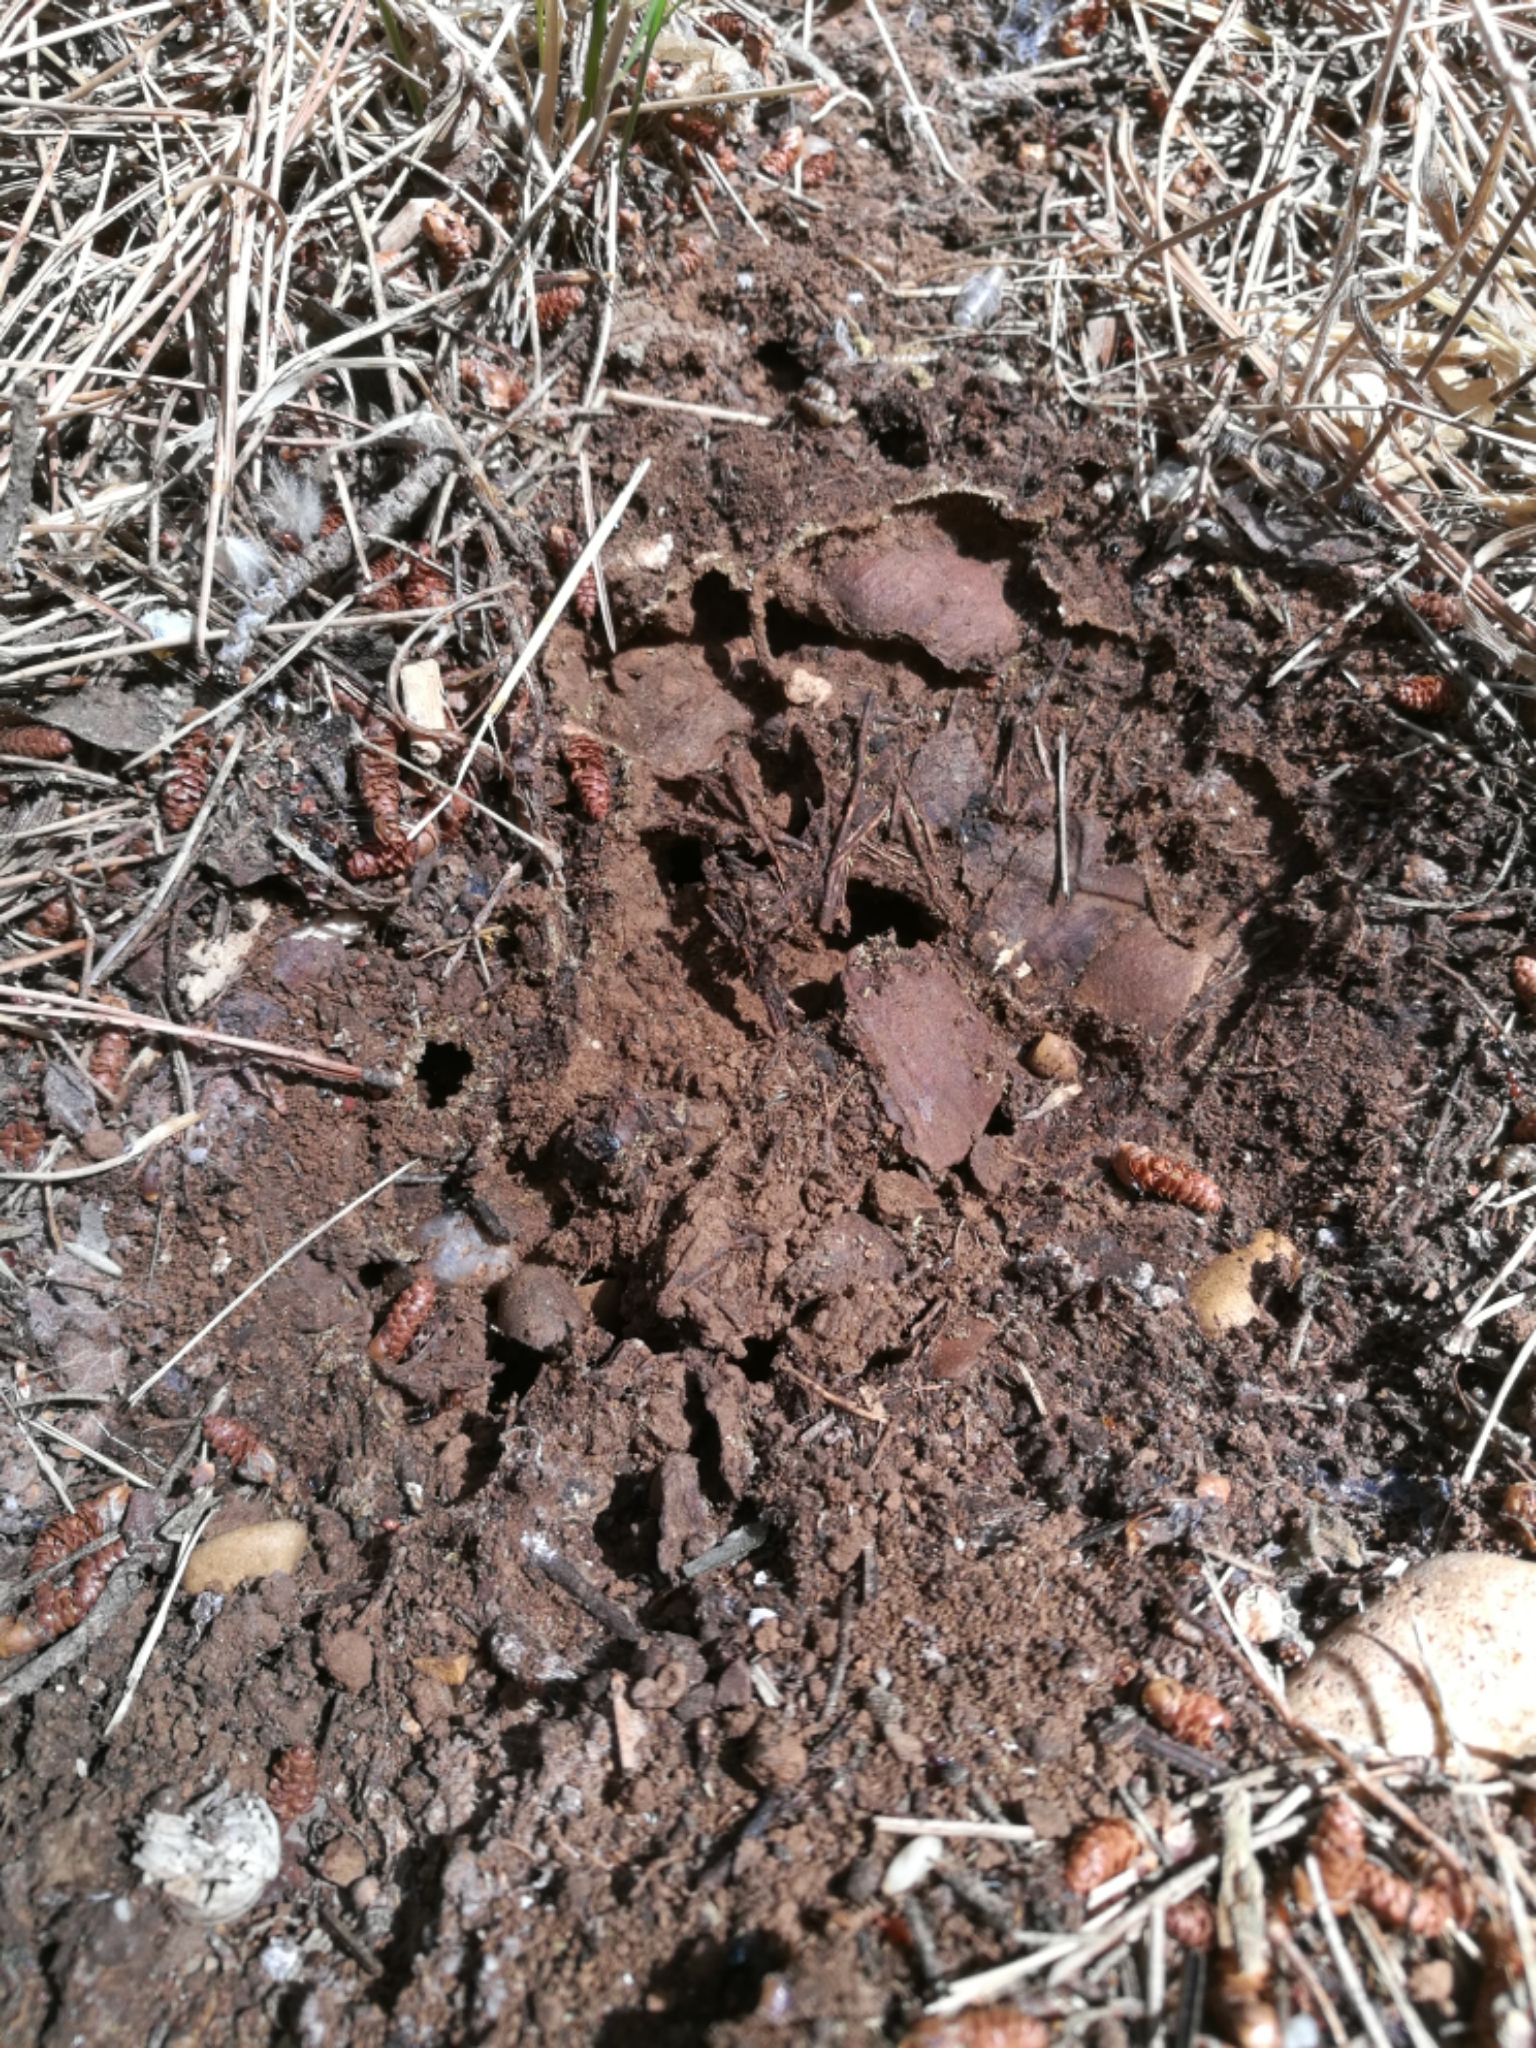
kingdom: Animalia
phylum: Arthropoda
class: Insecta
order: Hymenoptera
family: Formicidae
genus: Camponotus
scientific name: Camponotus lateralis
